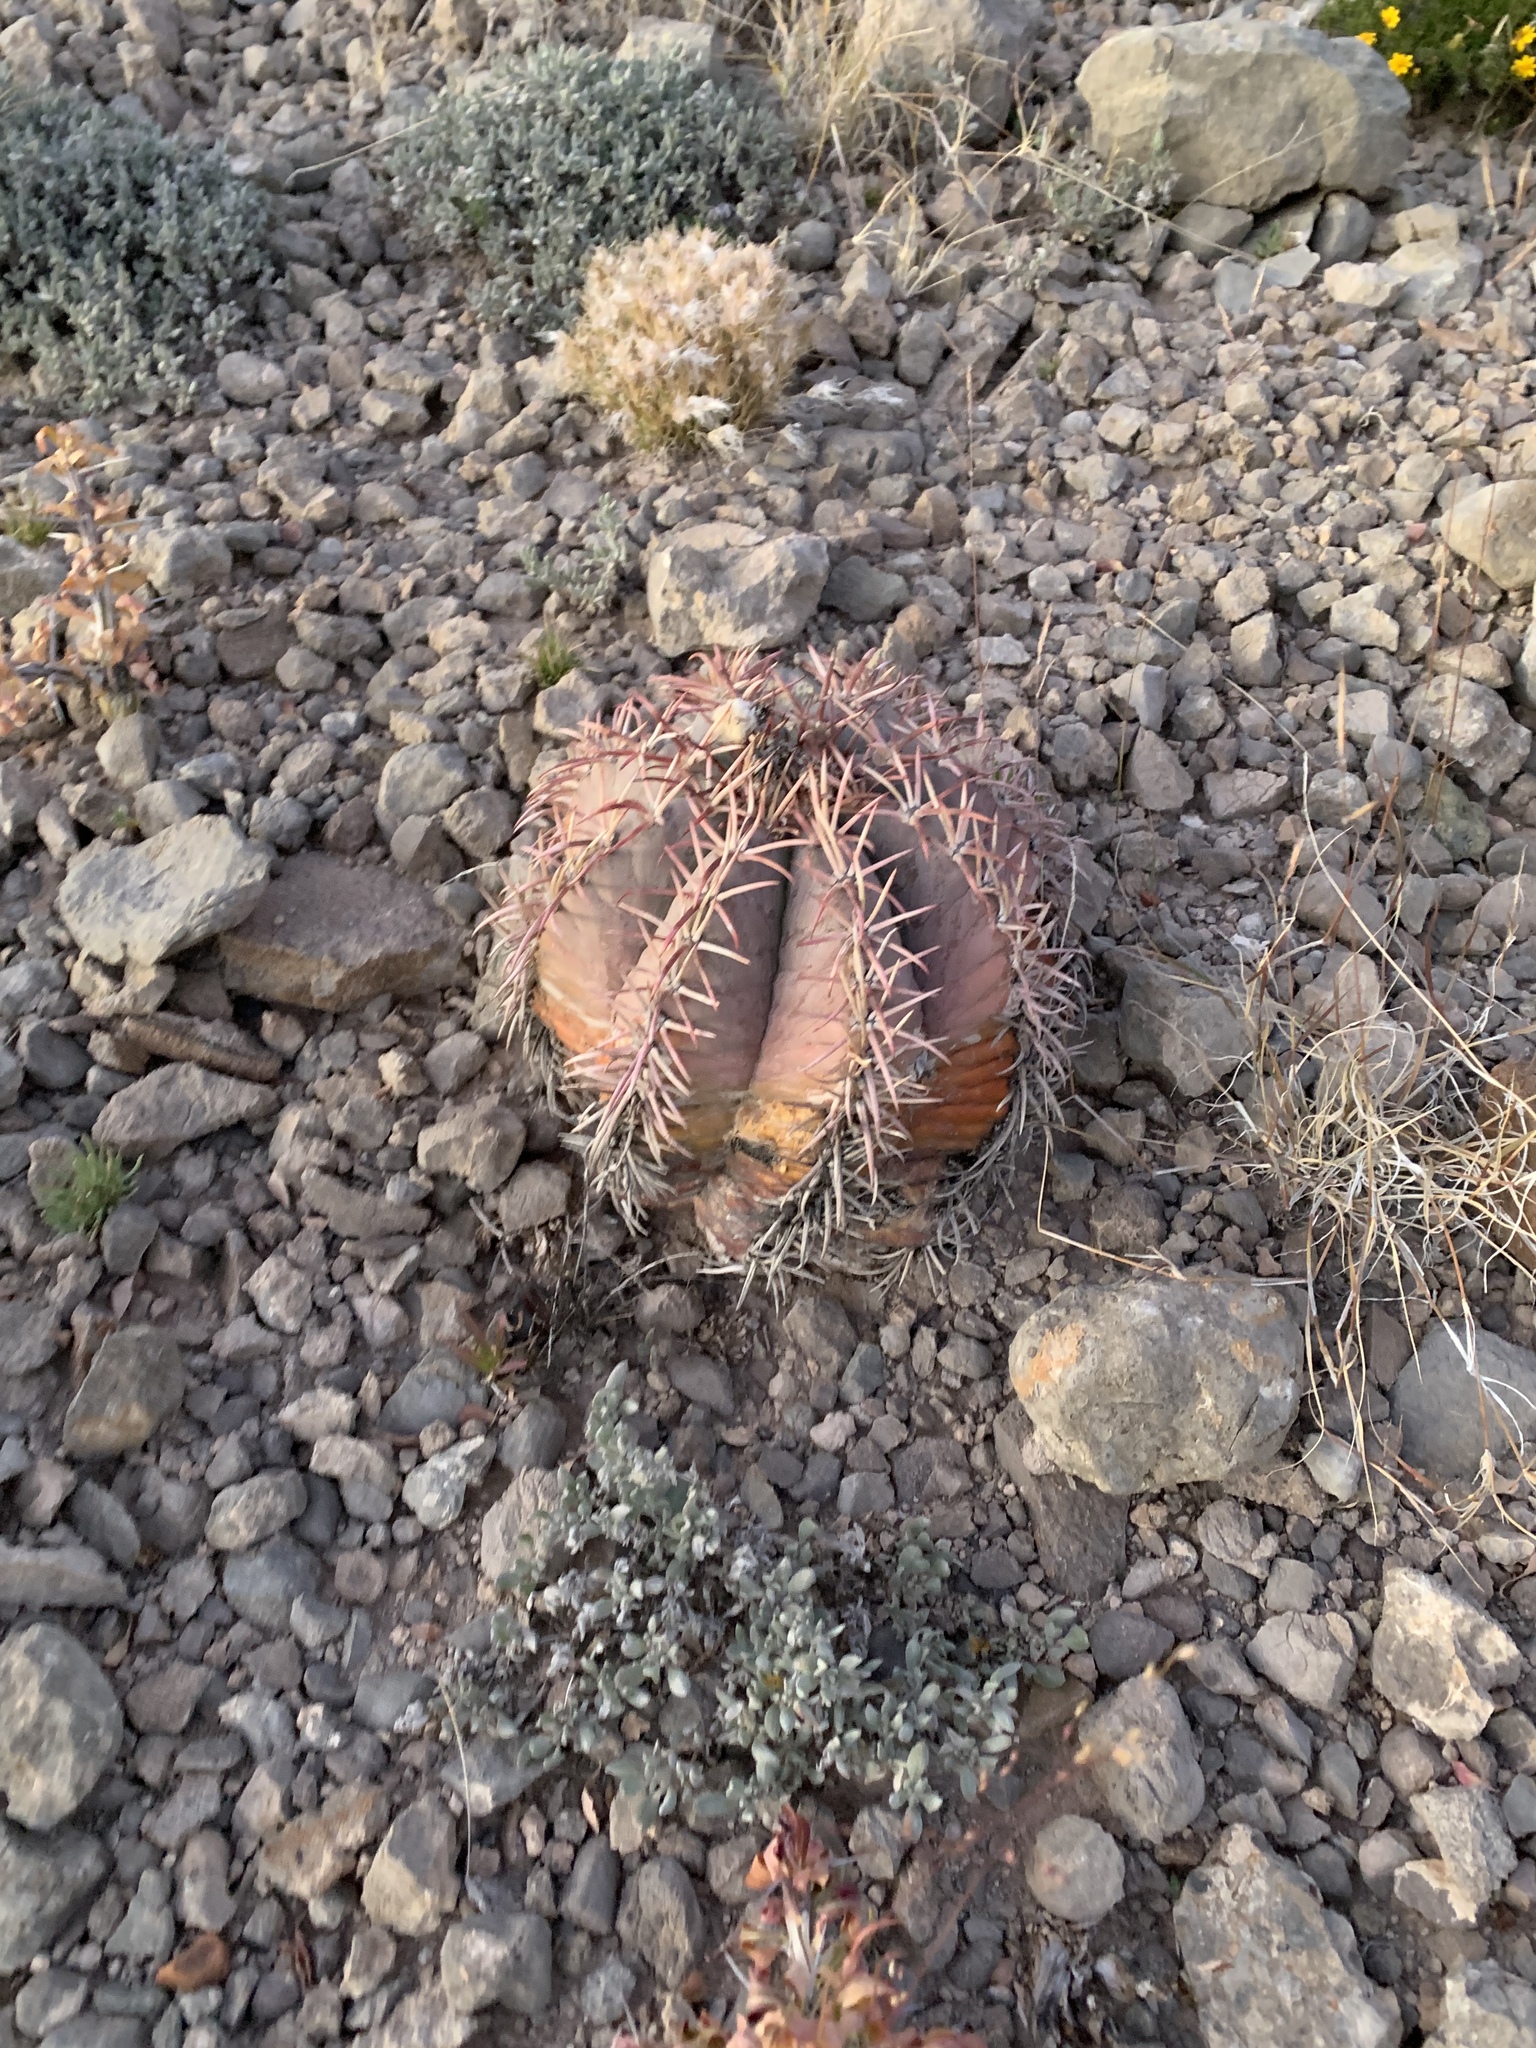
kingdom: Plantae
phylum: Tracheophyta
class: Magnoliopsida
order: Caryophyllales
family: Cactaceae
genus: Echinocactus
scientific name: Echinocactus horizonthalonius
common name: Devilshead
